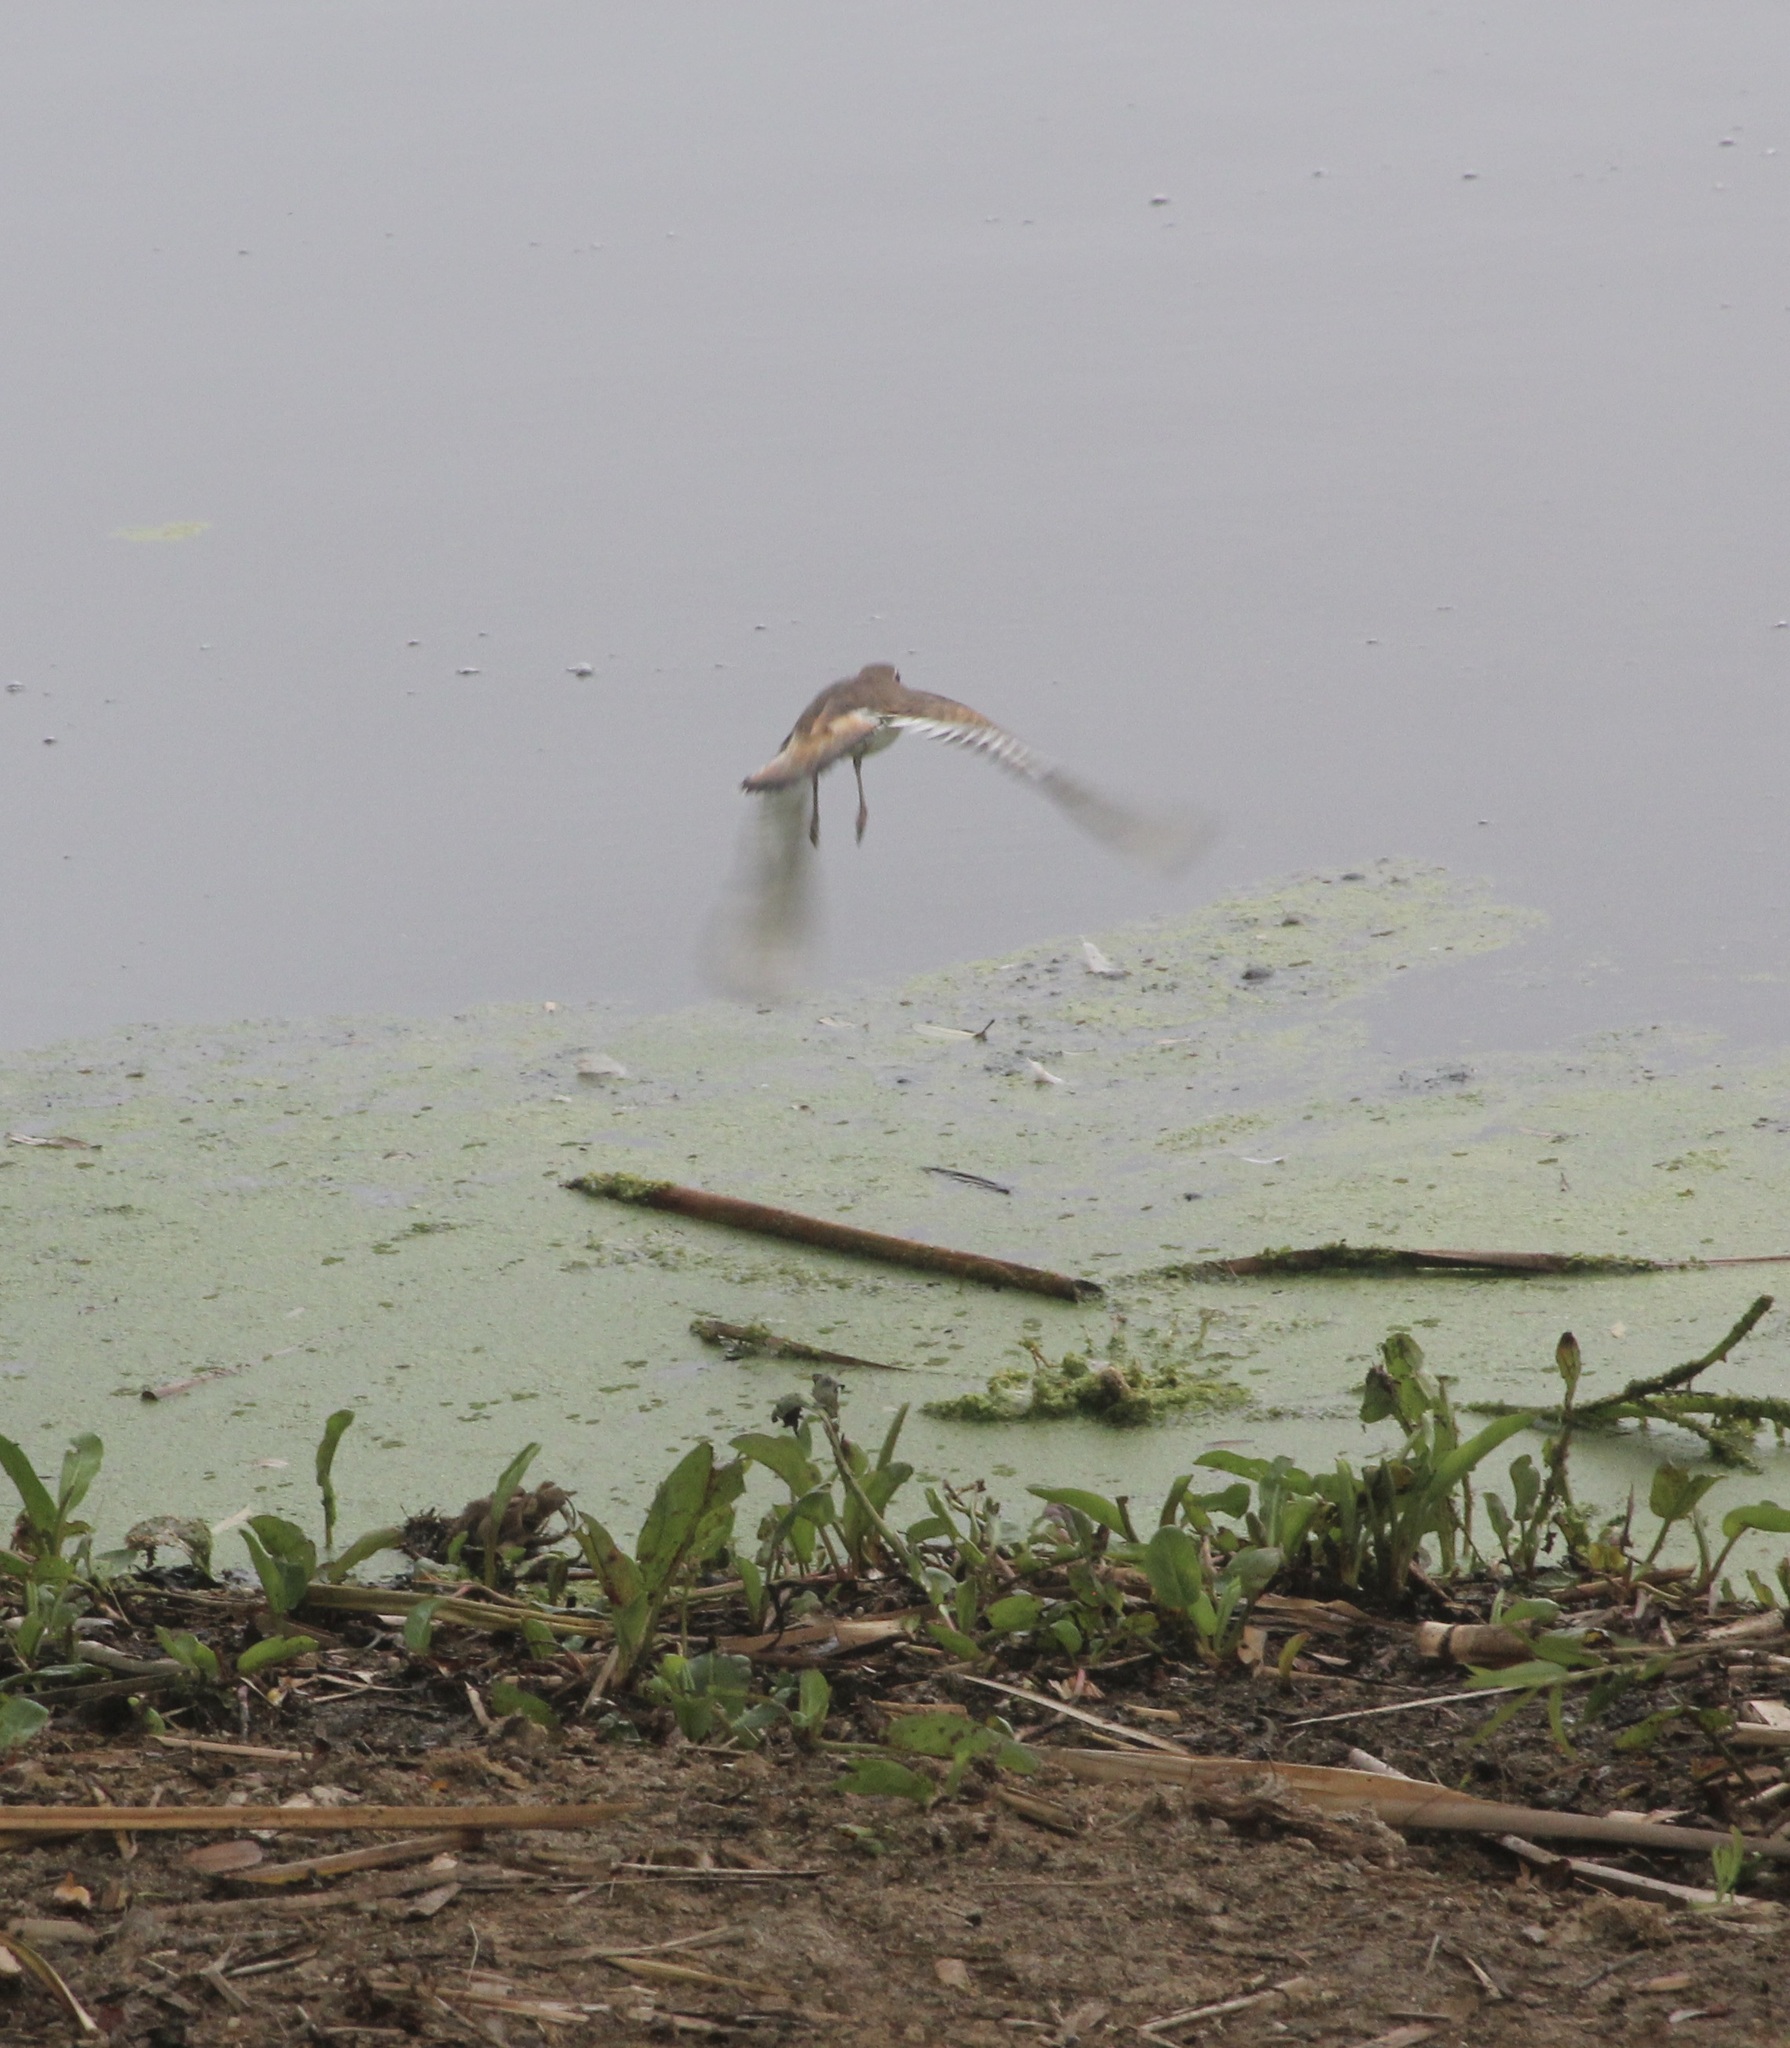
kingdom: Animalia
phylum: Chordata
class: Aves
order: Charadriiformes
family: Charadriidae
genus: Charadrius
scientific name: Charadrius vociferus
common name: Killdeer
